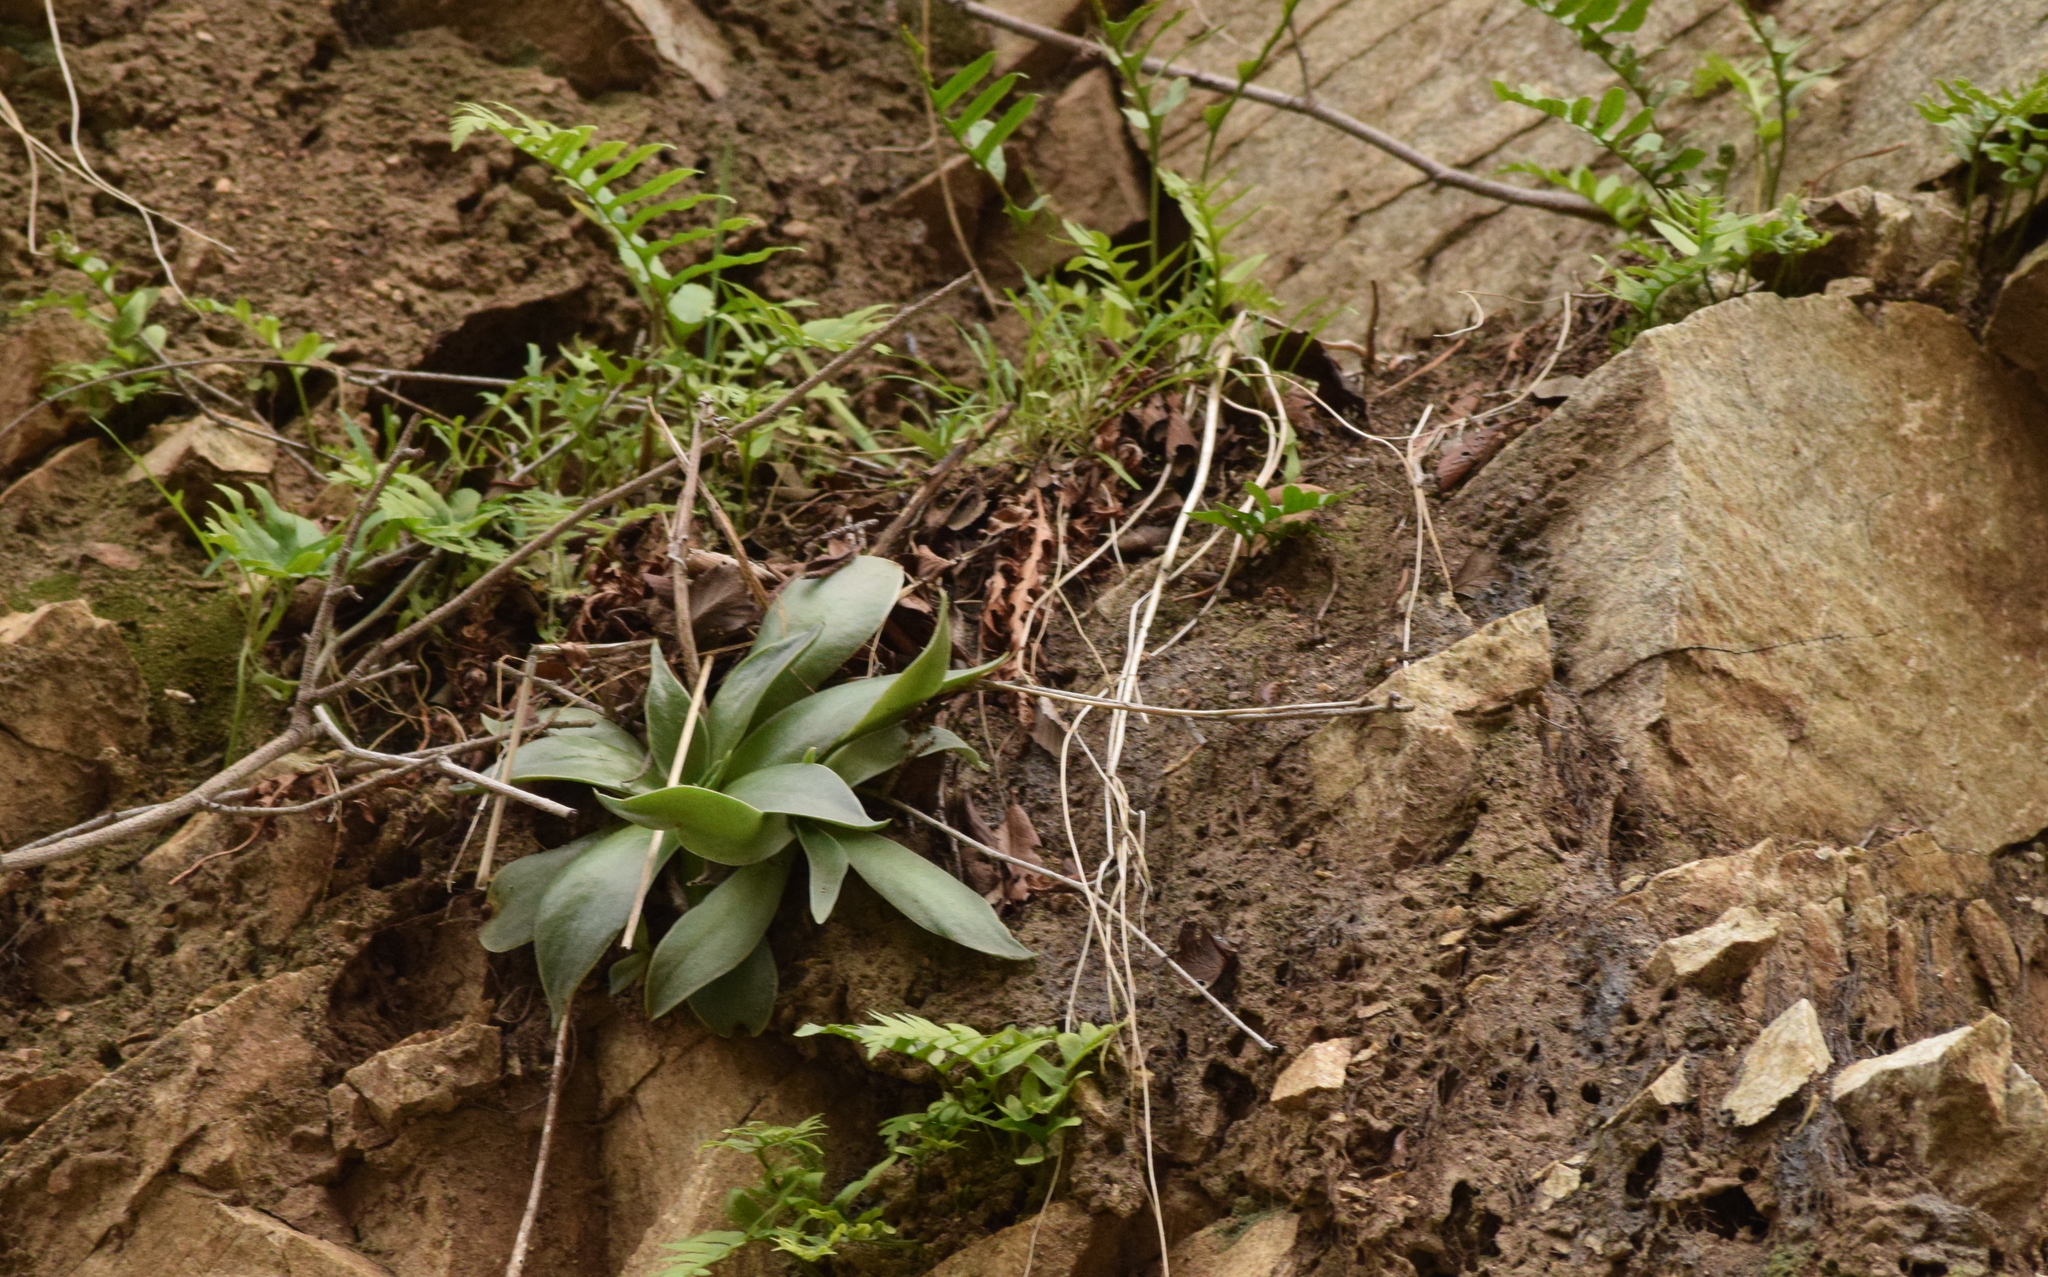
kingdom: Plantae
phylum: Tracheophyta
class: Magnoliopsida
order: Saxifragales
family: Crassulaceae
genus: Dudleya
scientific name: Dudleya lanceolata
